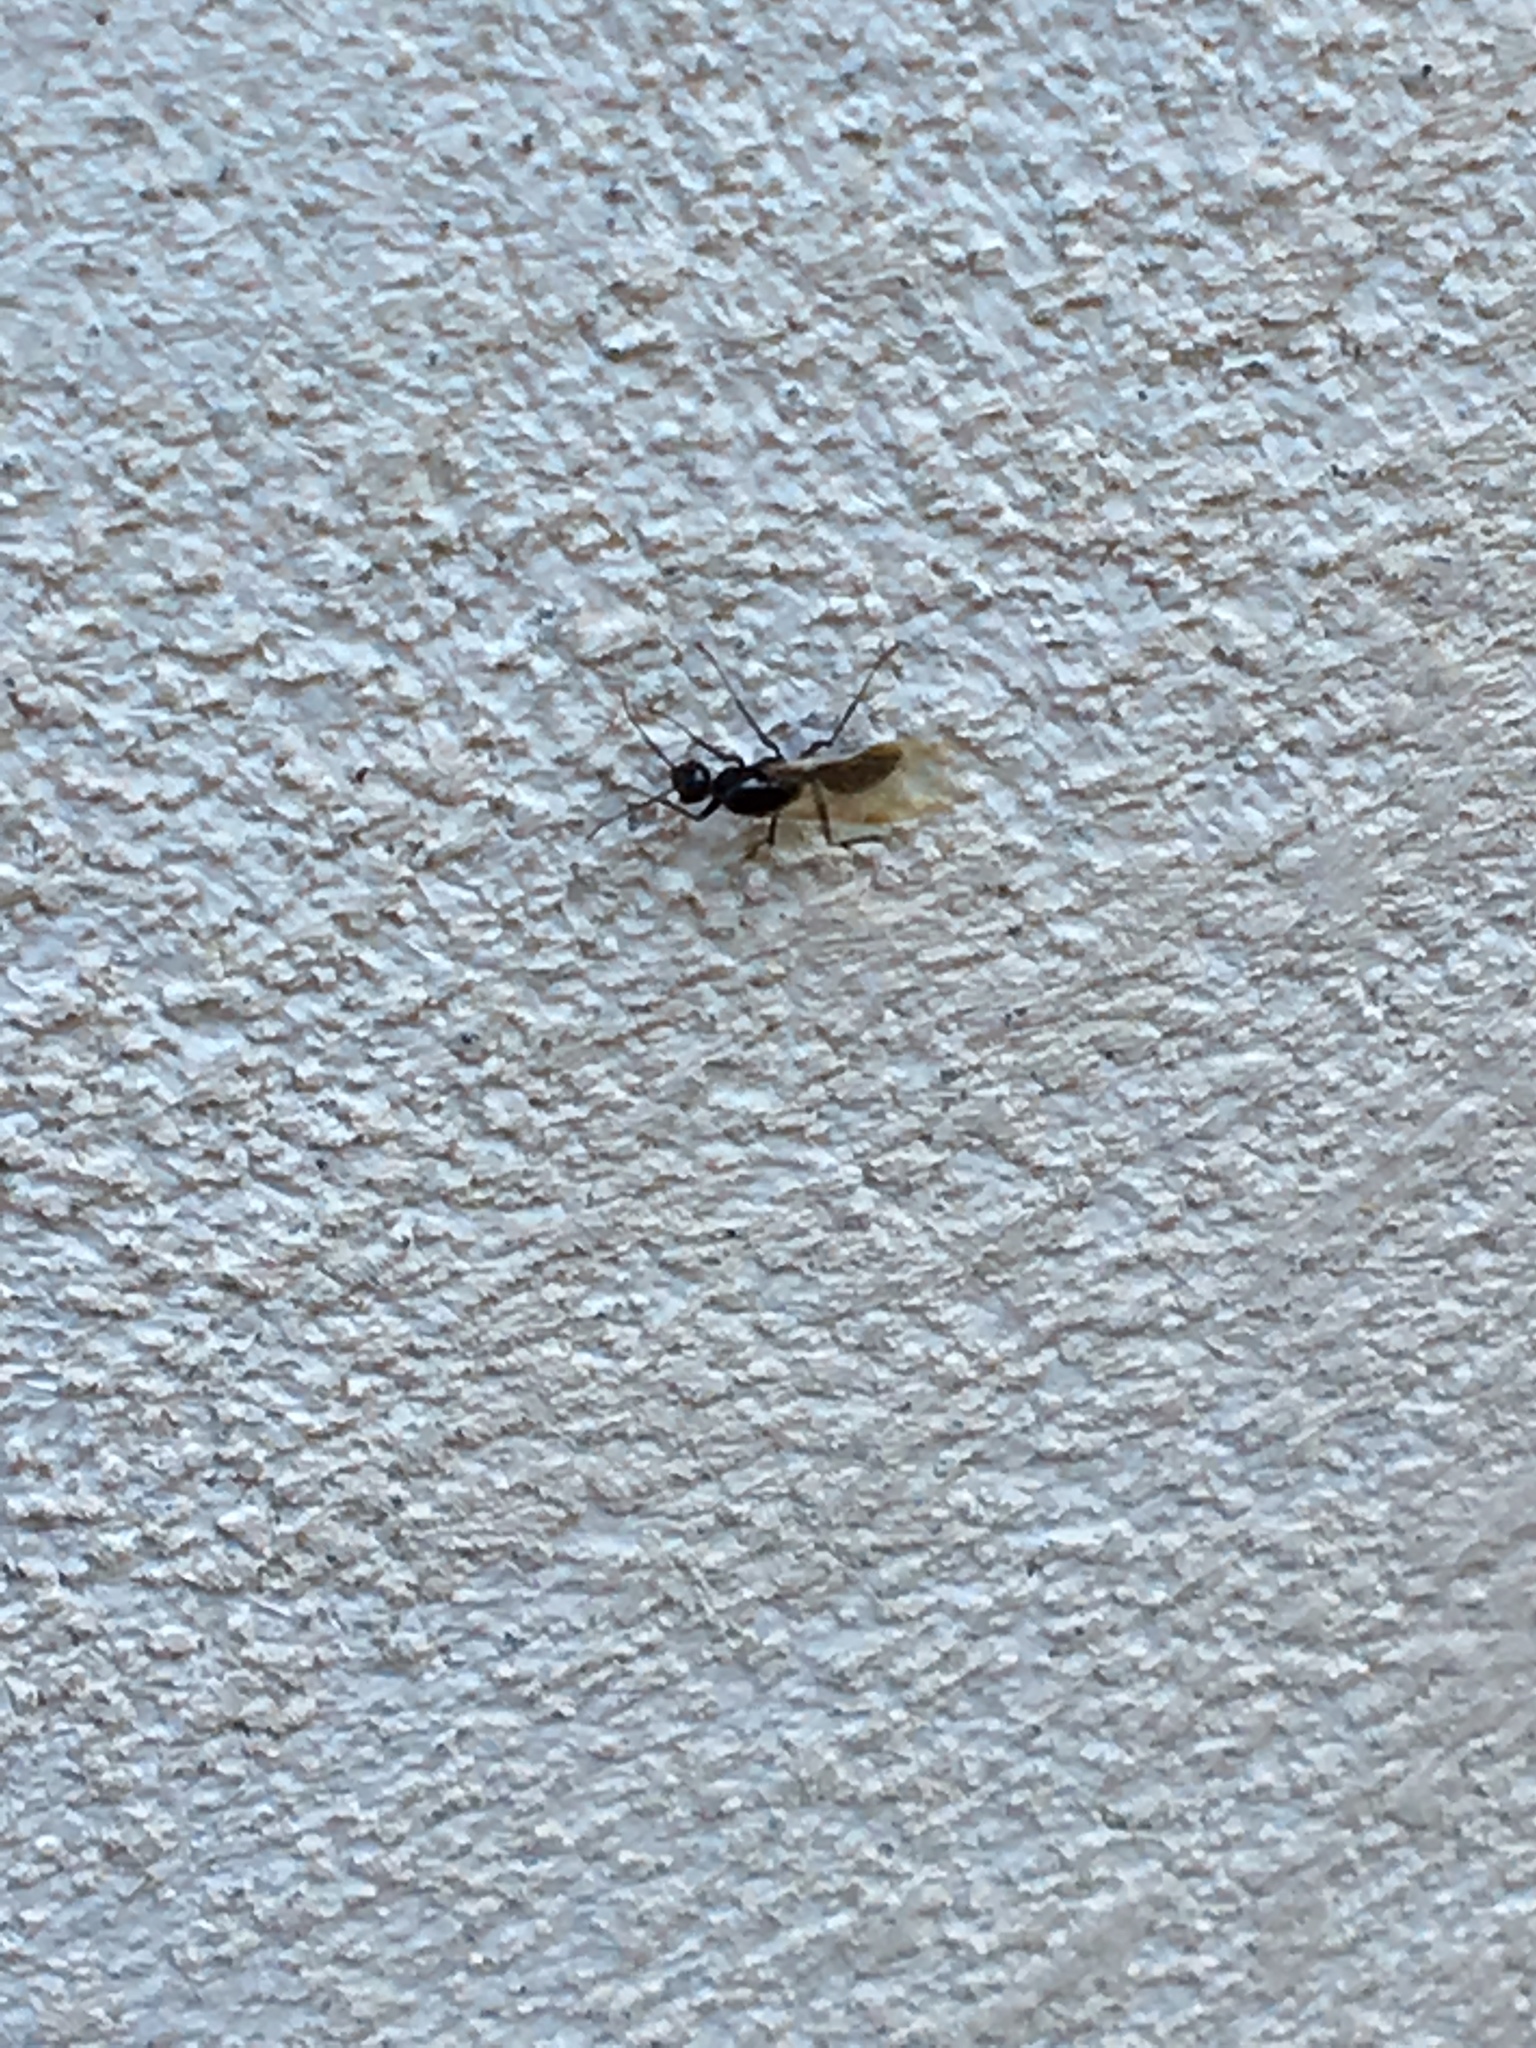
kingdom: Animalia
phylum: Arthropoda
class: Insecta
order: Hymenoptera
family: Formicidae
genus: Camponotus
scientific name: Camponotus lateralis
